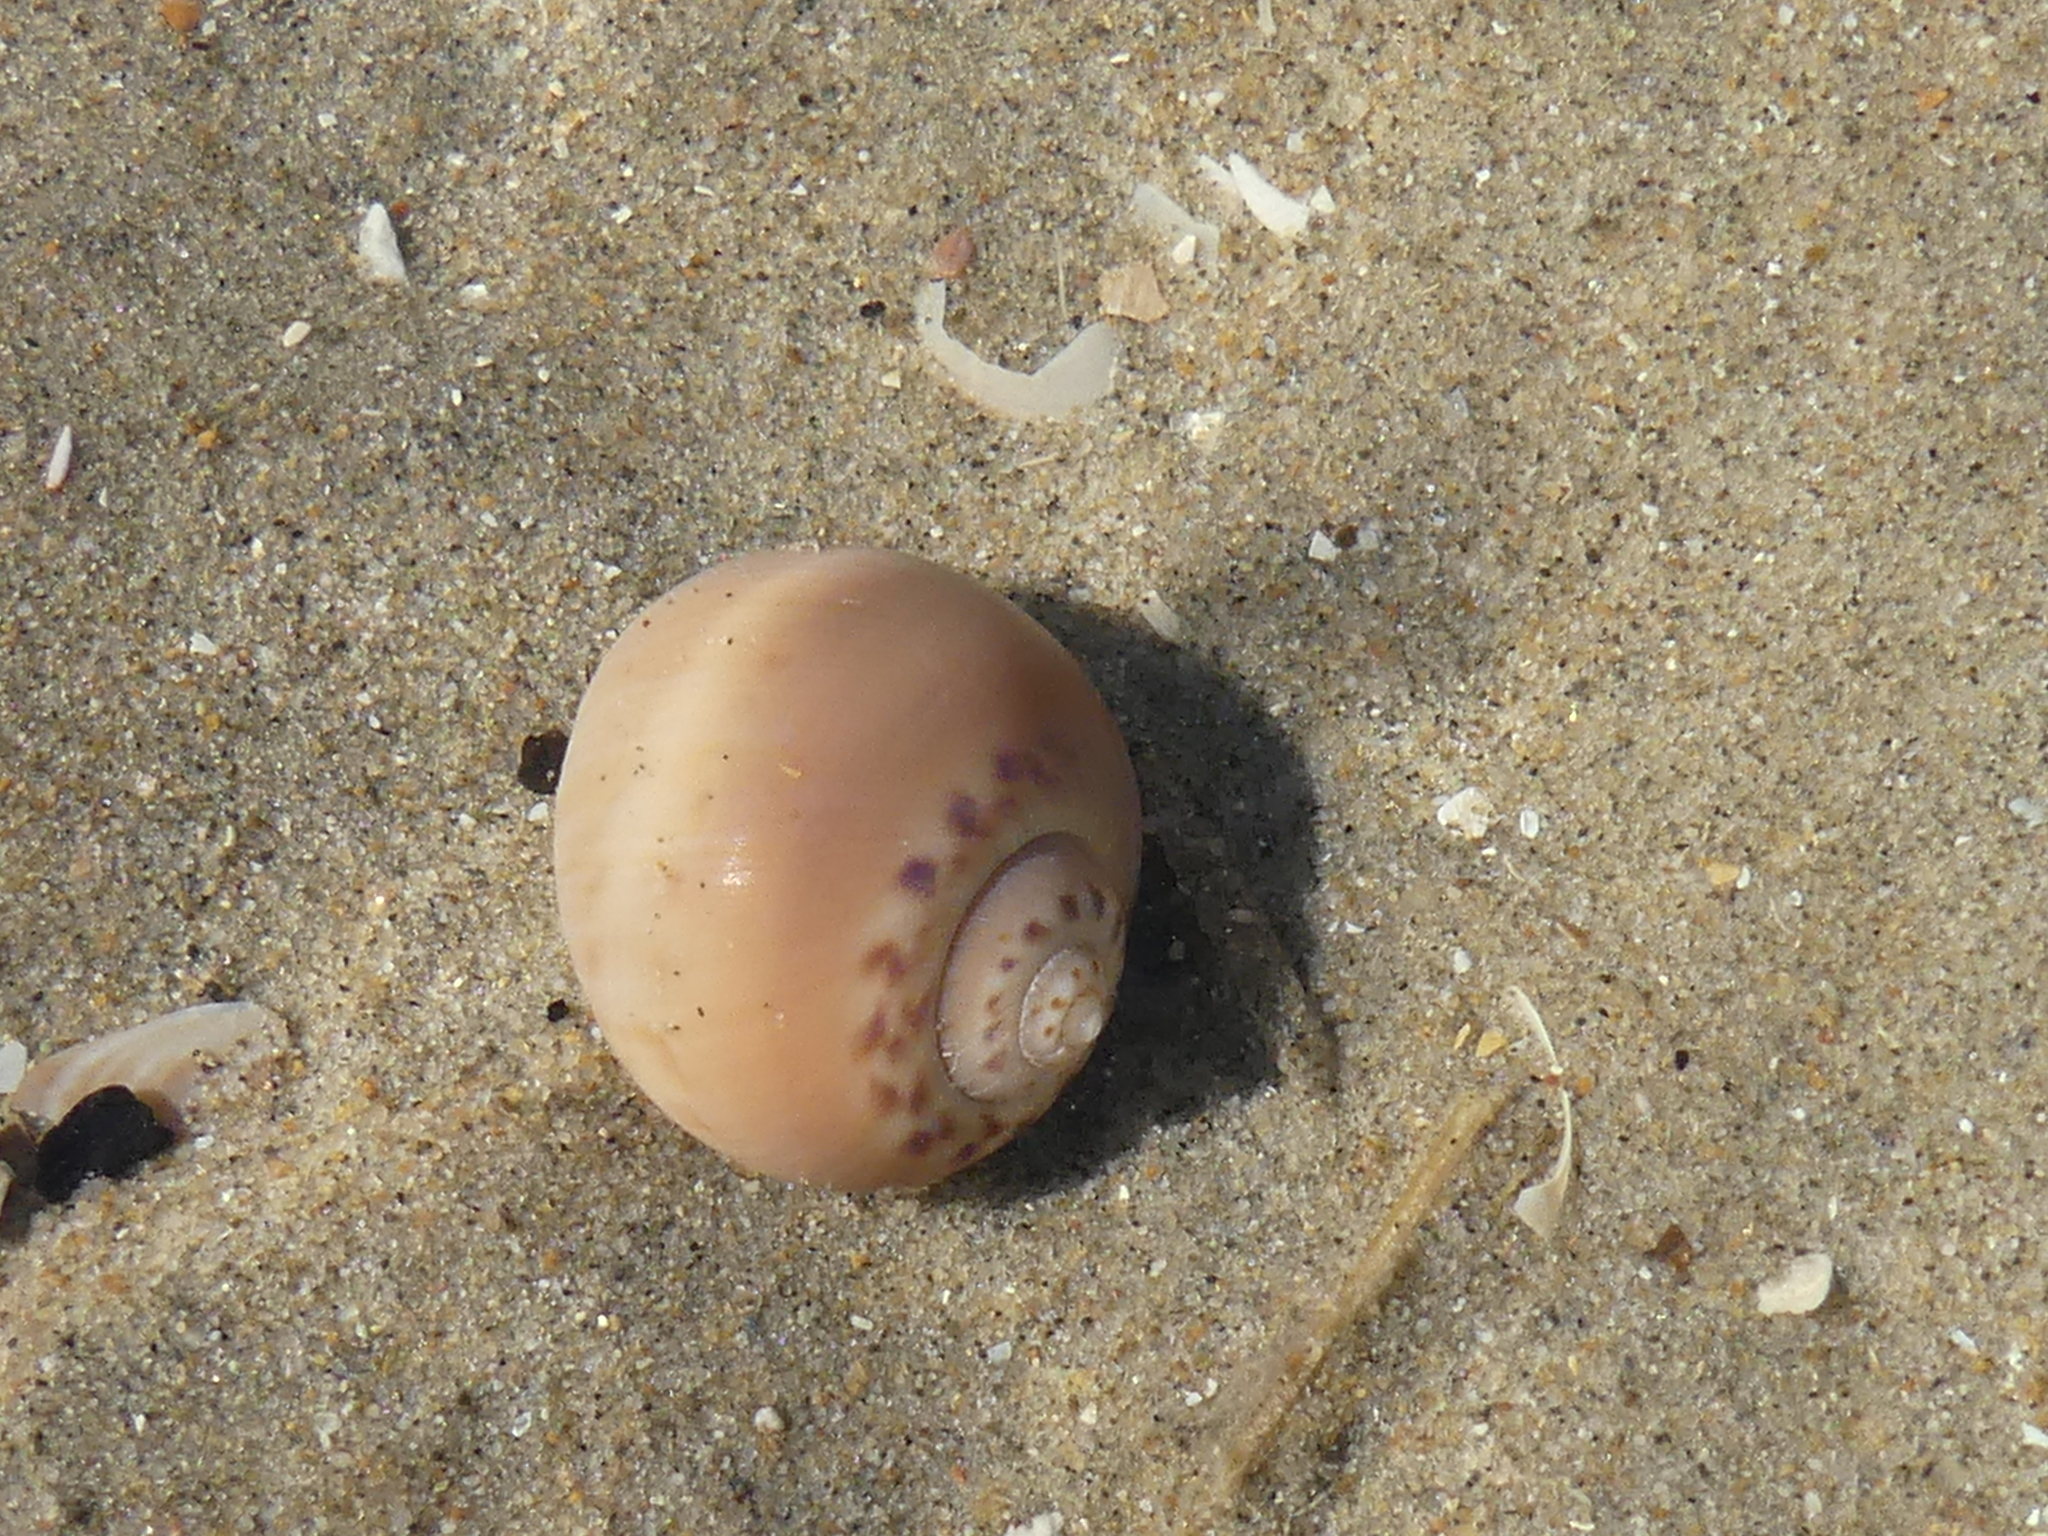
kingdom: Animalia
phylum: Mollusca
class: Gastropoda
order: Littorinimorpha
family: Naticidae
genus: Euspira
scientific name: Euspira catena
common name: Necklace shell
